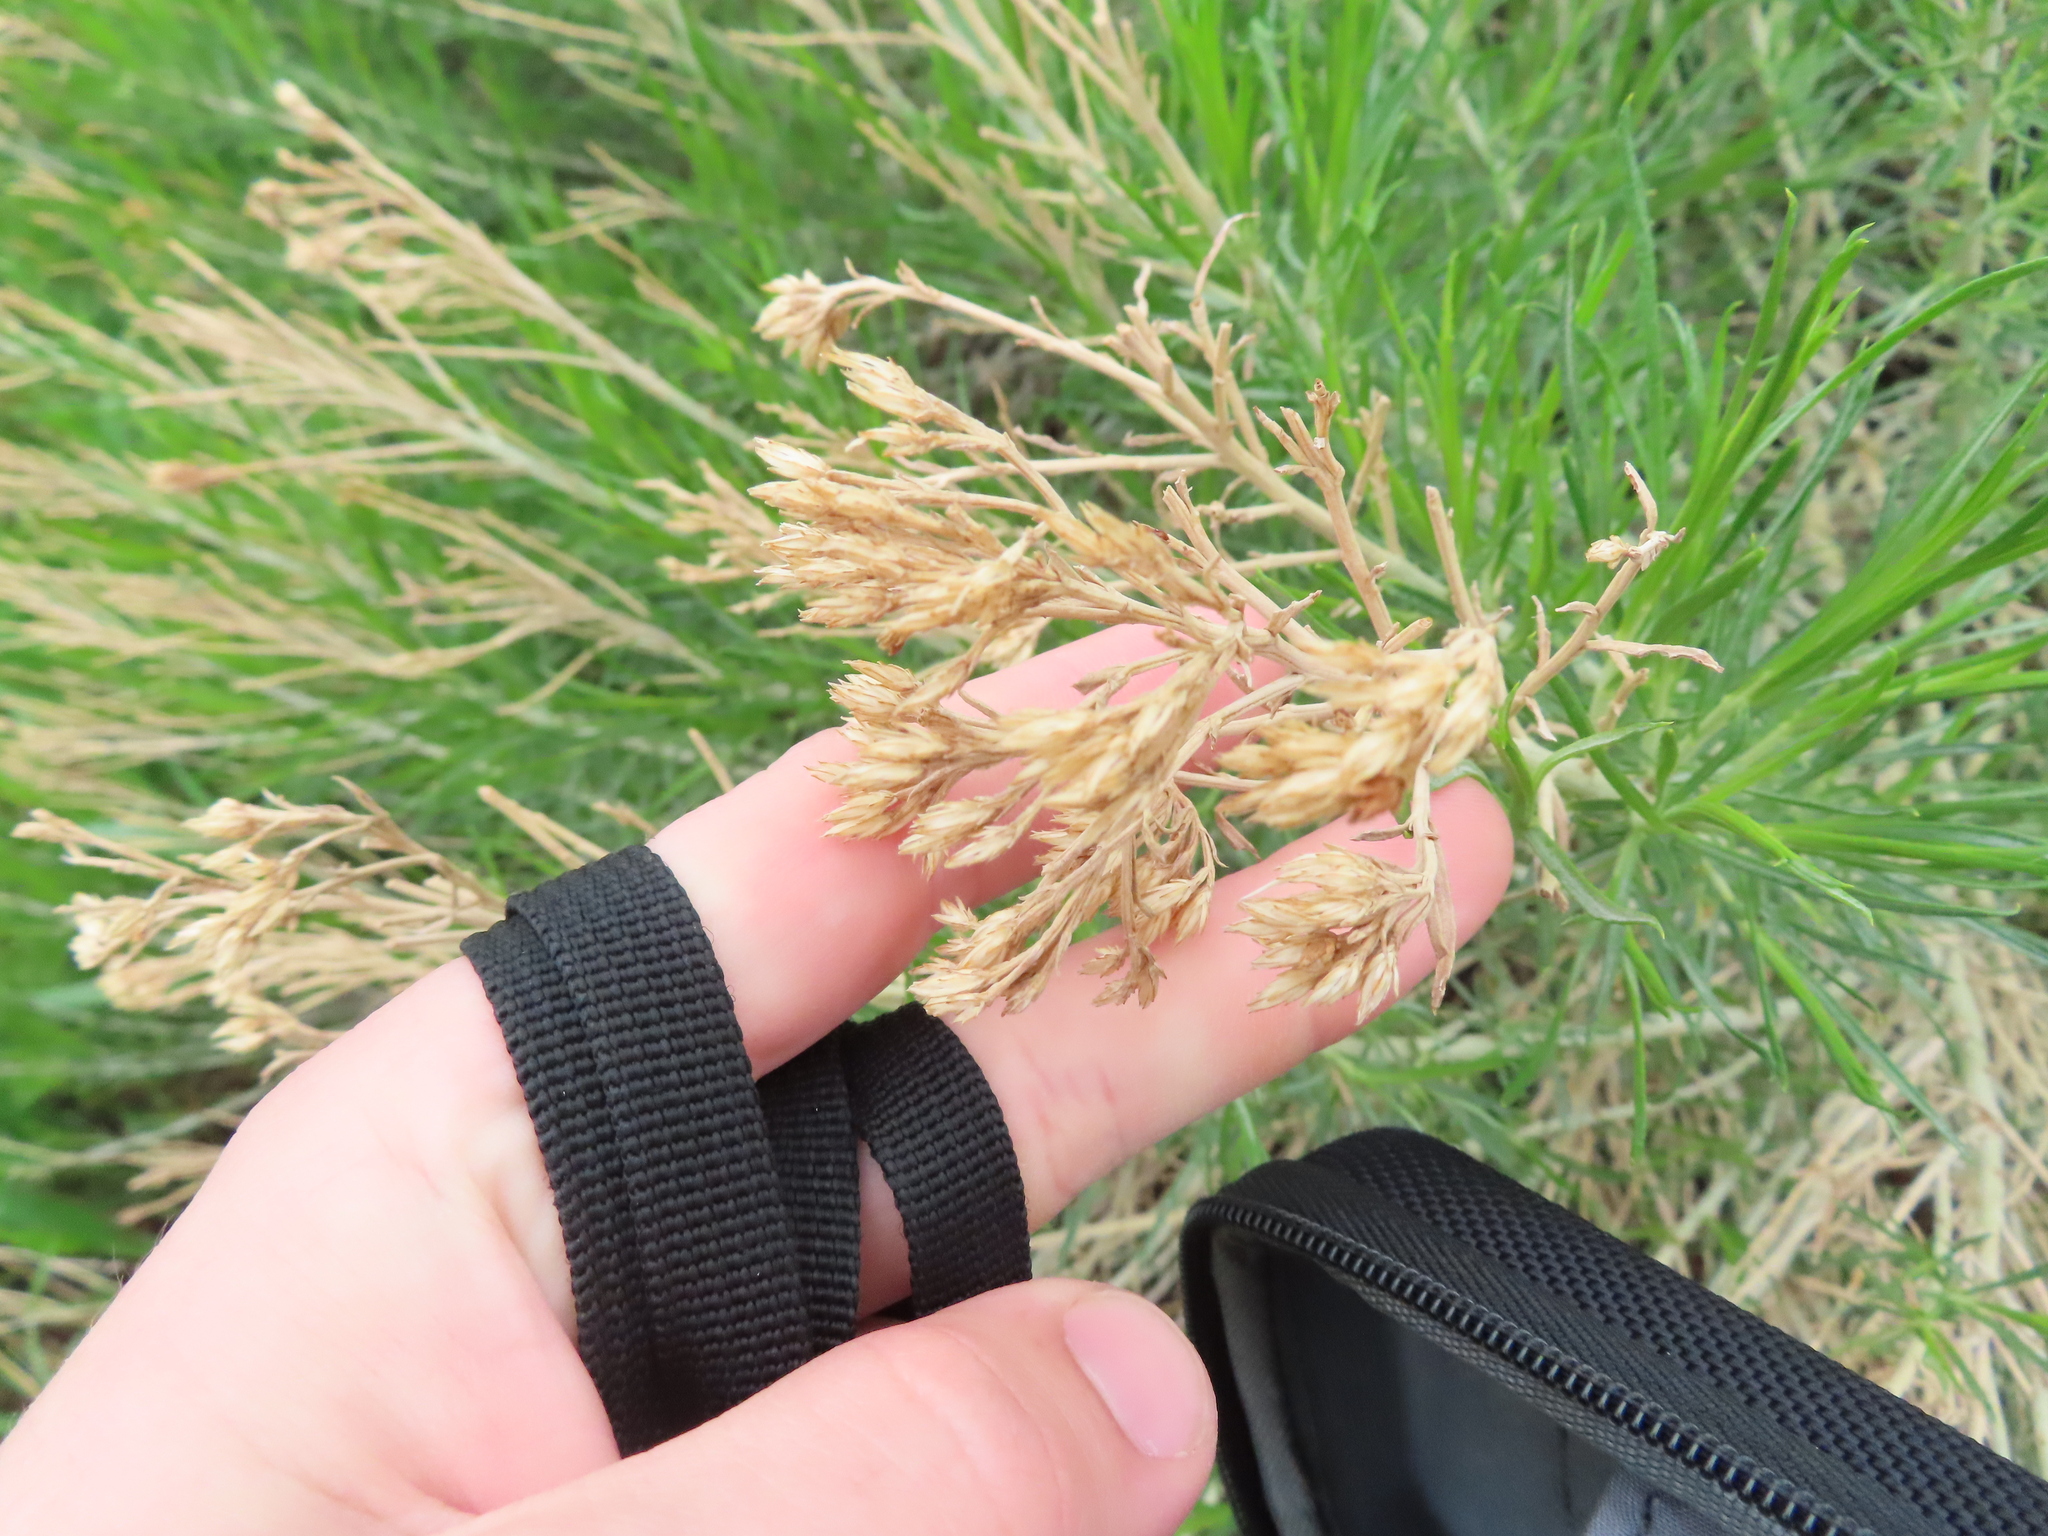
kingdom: Plantae
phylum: Tracheophyta
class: Magnoliopsida
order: Asterales
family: Asteraceae
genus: Ericameria
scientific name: Ericameria nauseosa
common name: Rubber rabbitbrush
